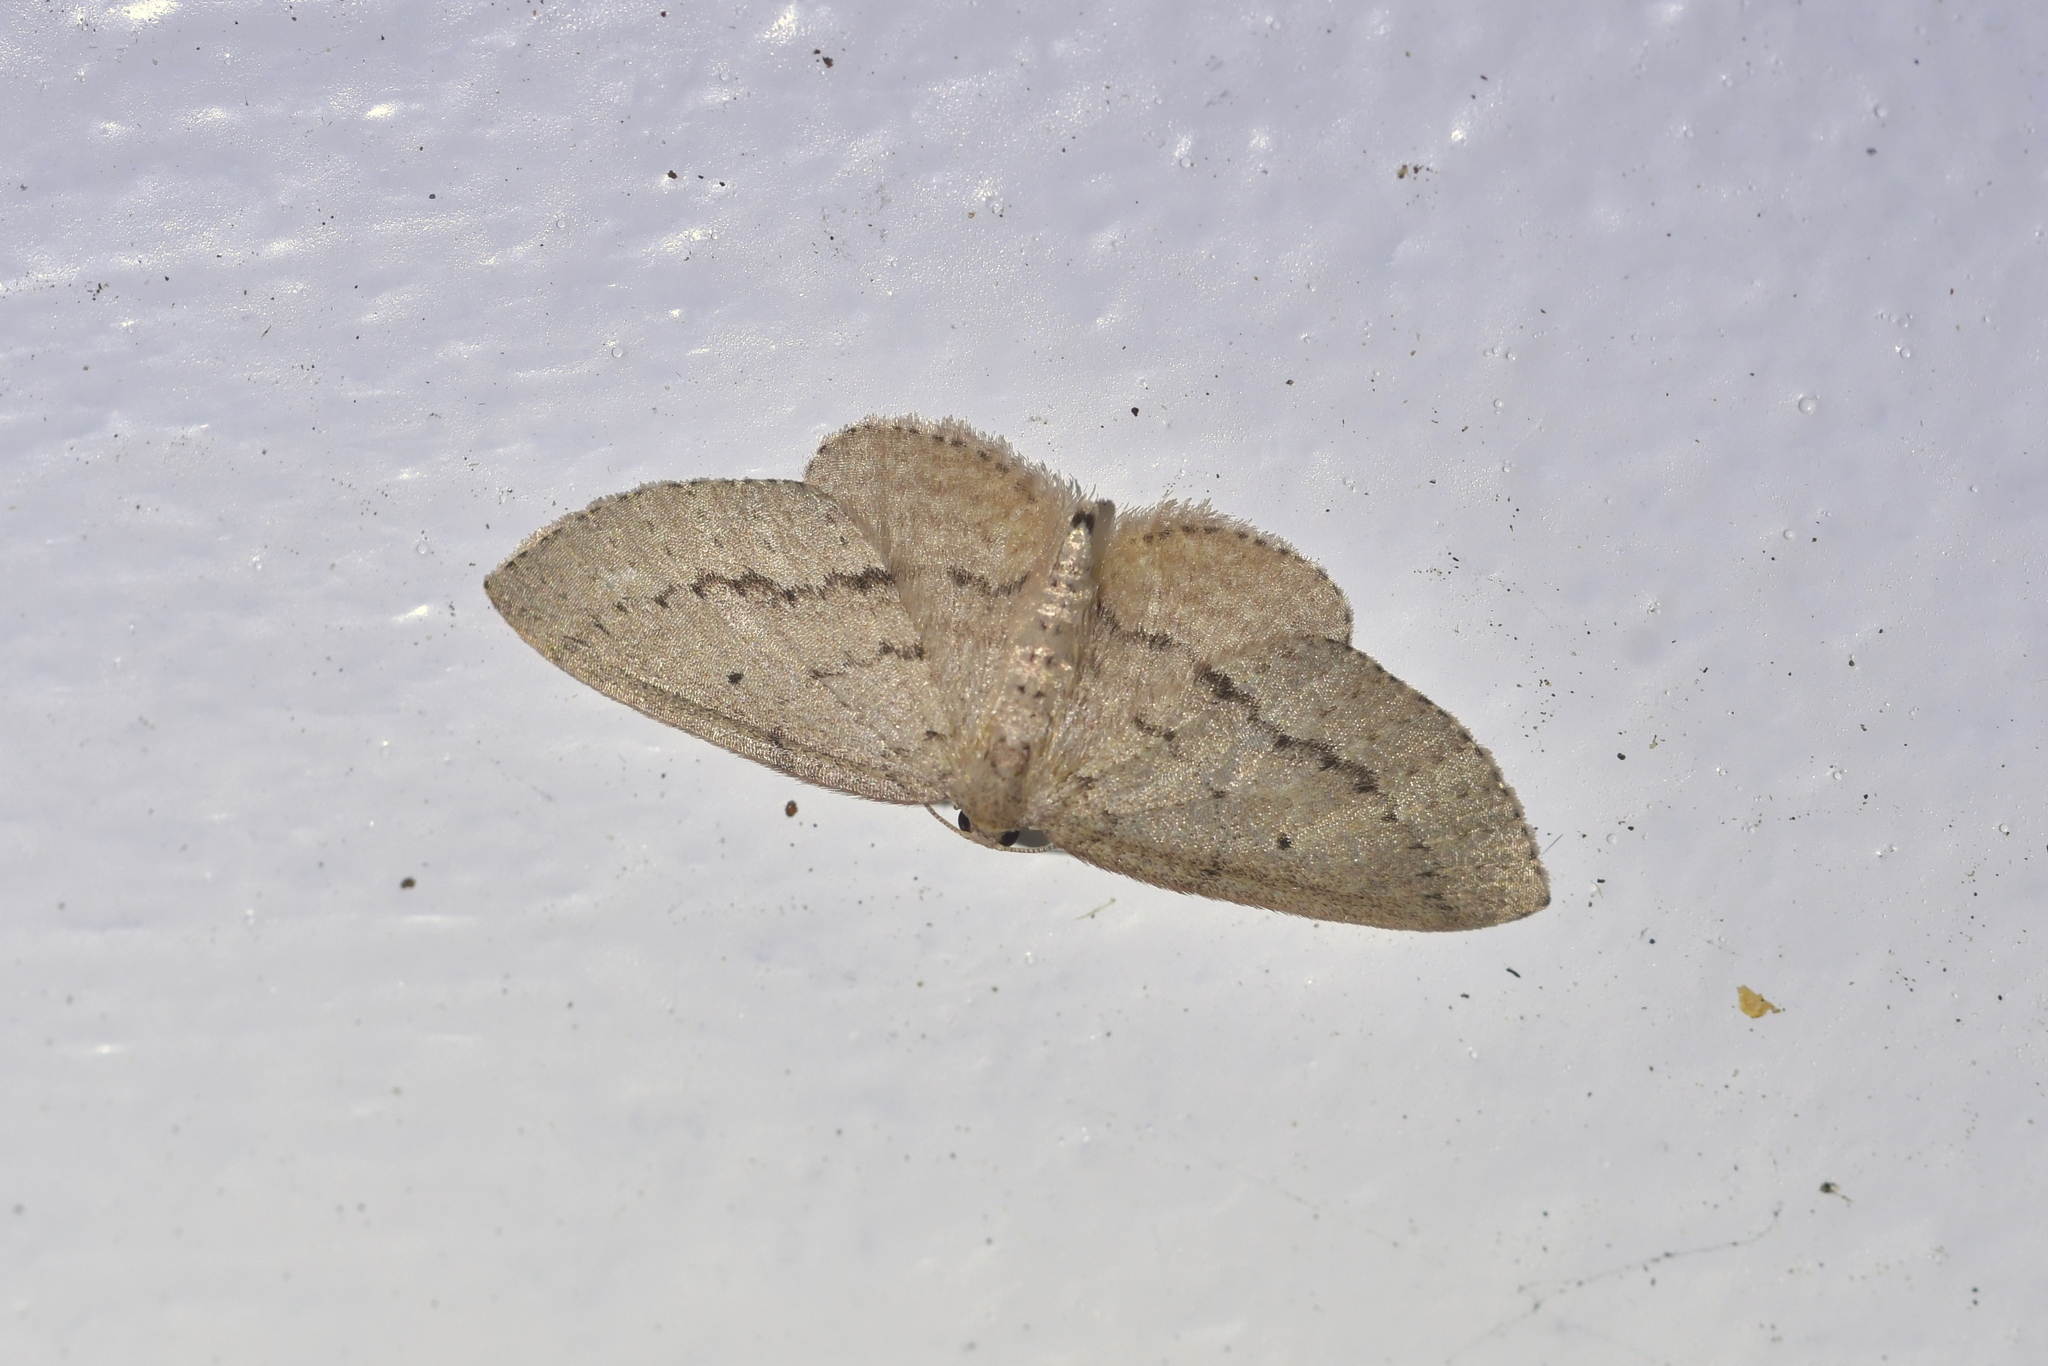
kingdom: Animalia
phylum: Arthropoda
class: Insecta
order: Lepidoptera
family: Geometridae
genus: Poecilasthena
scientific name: Poecilasthena schistaria
